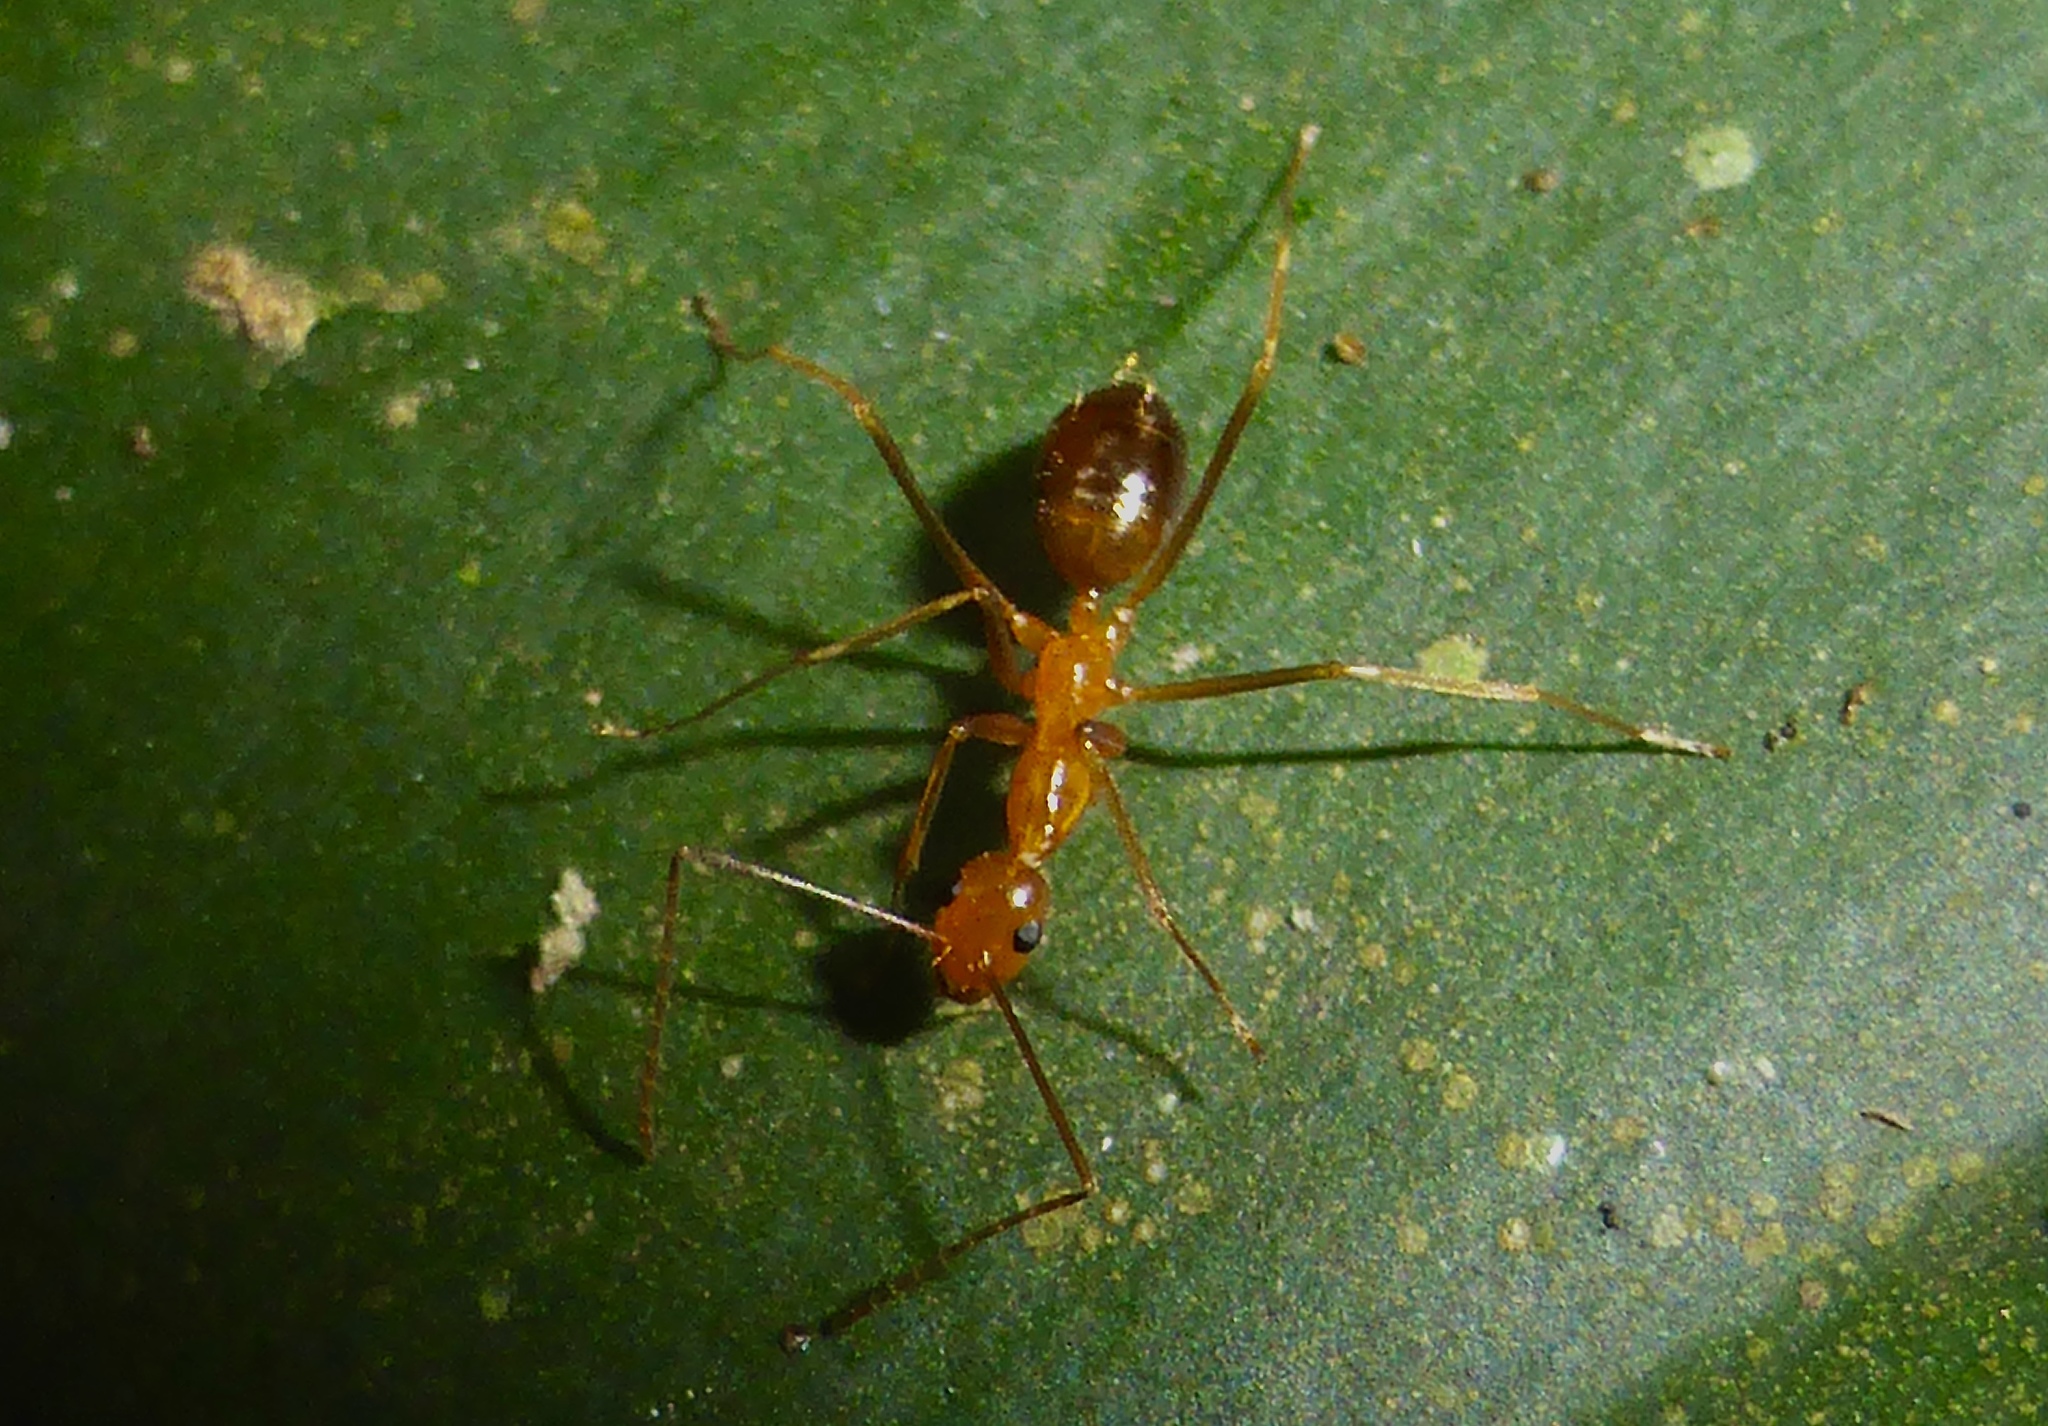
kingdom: Animalia
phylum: Arthropoda
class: Insecta
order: Hymenoptera
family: Formicidae
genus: Anoplolepis
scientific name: Anoplolepis gracilipes
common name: Ant
